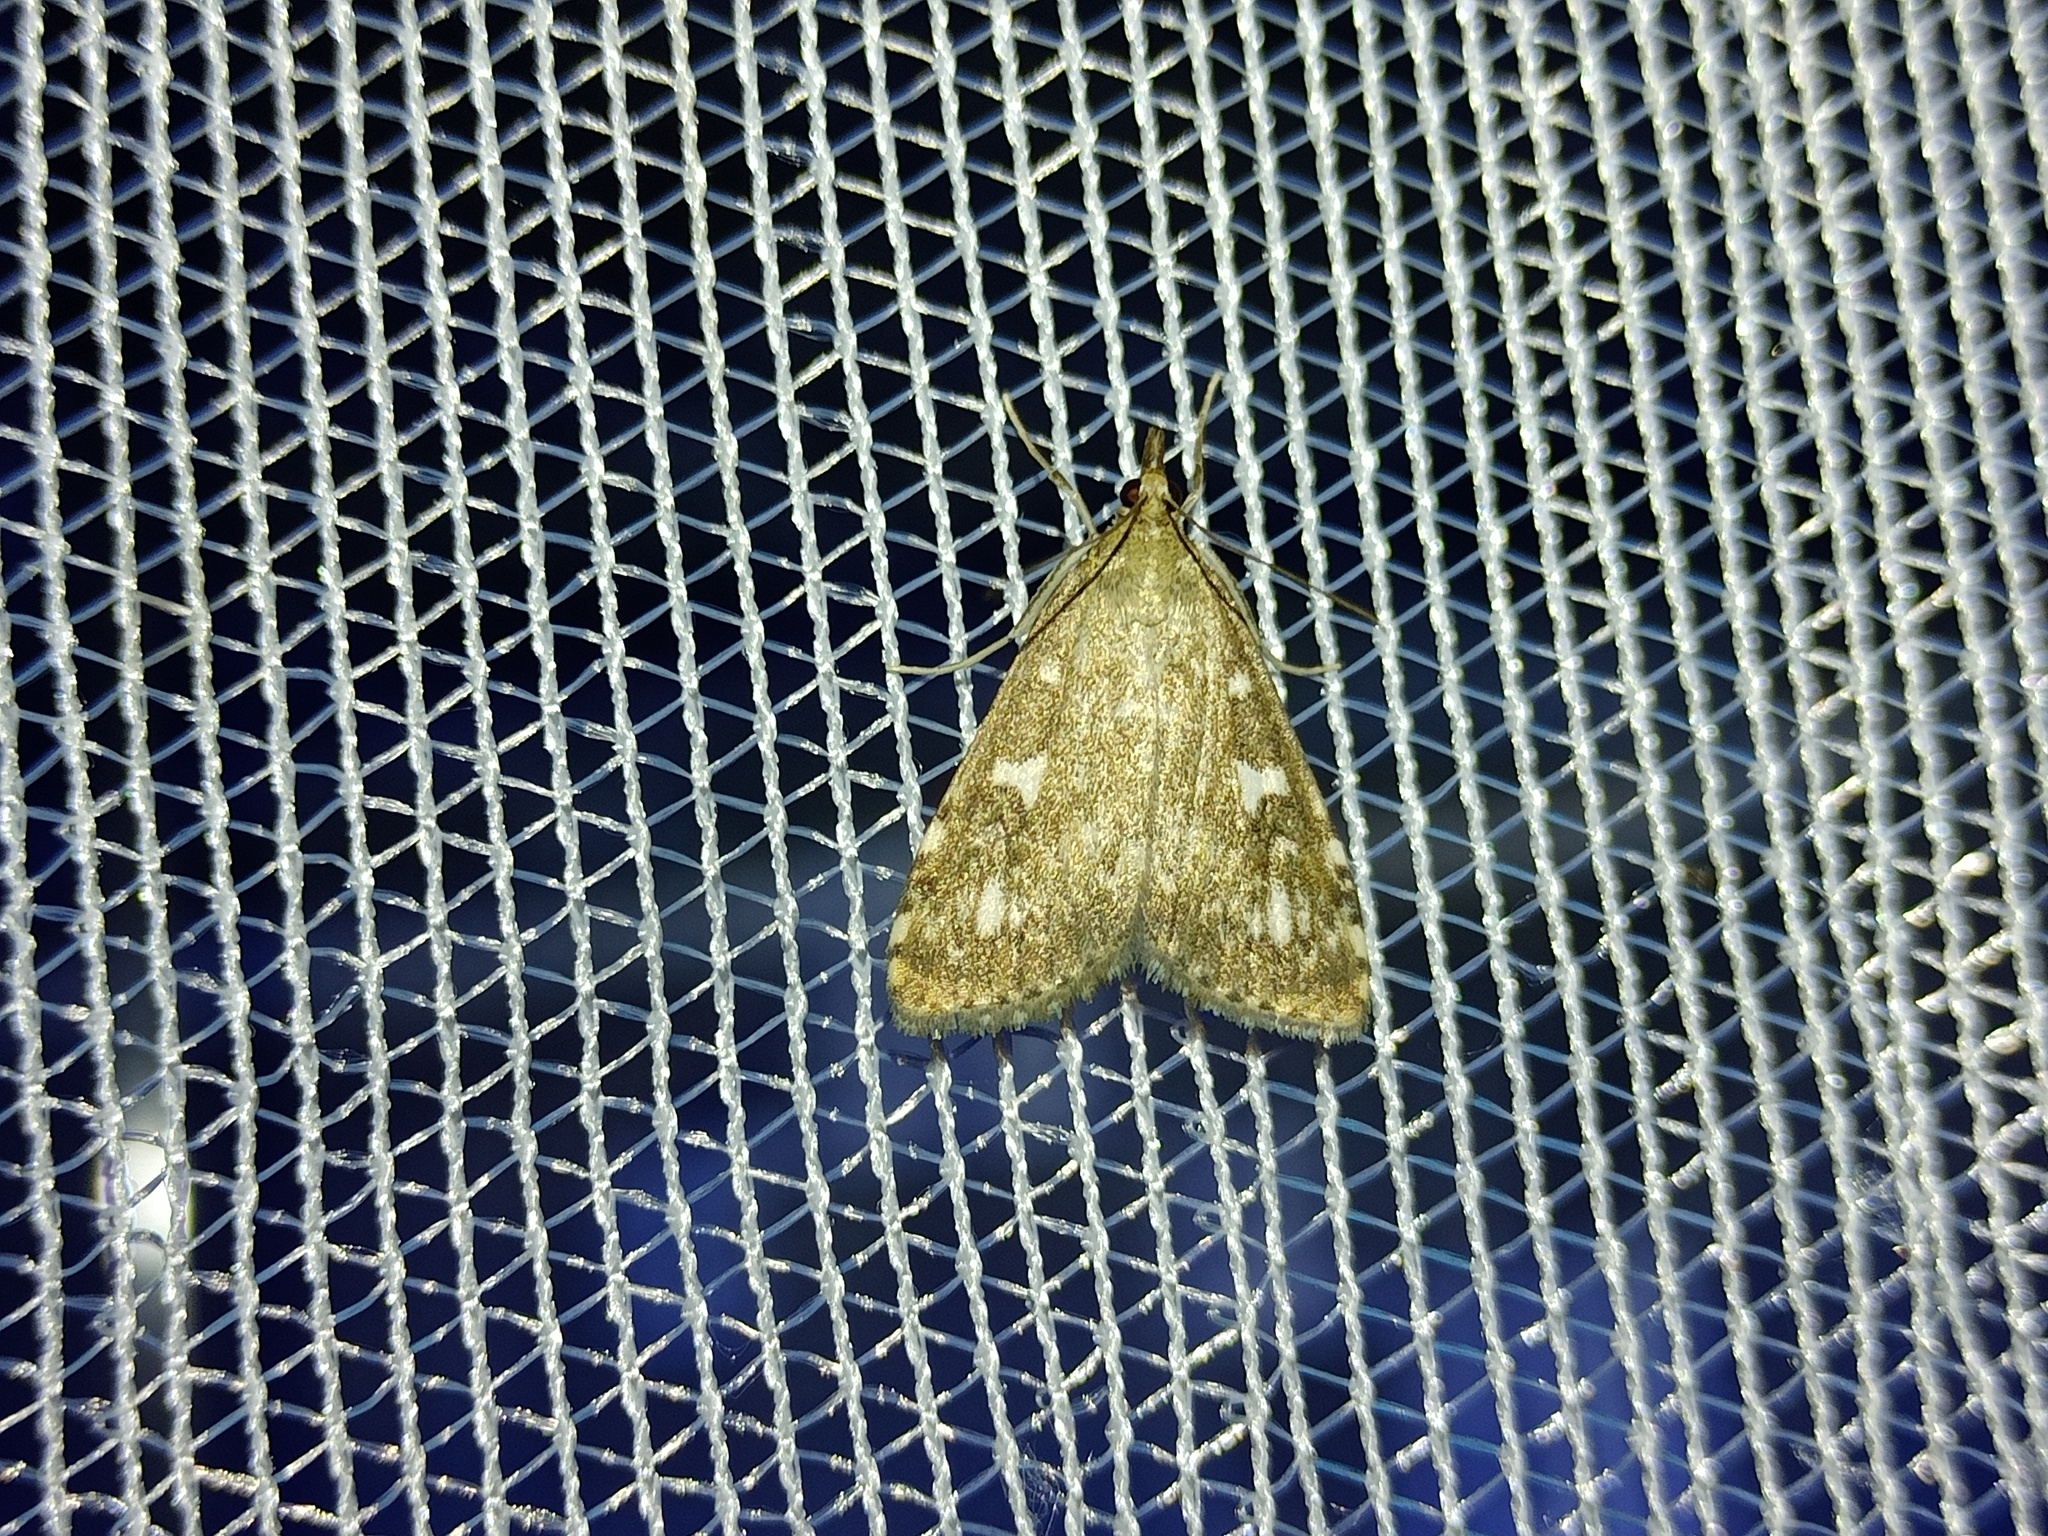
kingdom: Animalia
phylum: Arthropoda
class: Insecta
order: Lepidoptera
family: Crambidae
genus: Udea
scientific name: Udea olivalis
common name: Olive pearl
